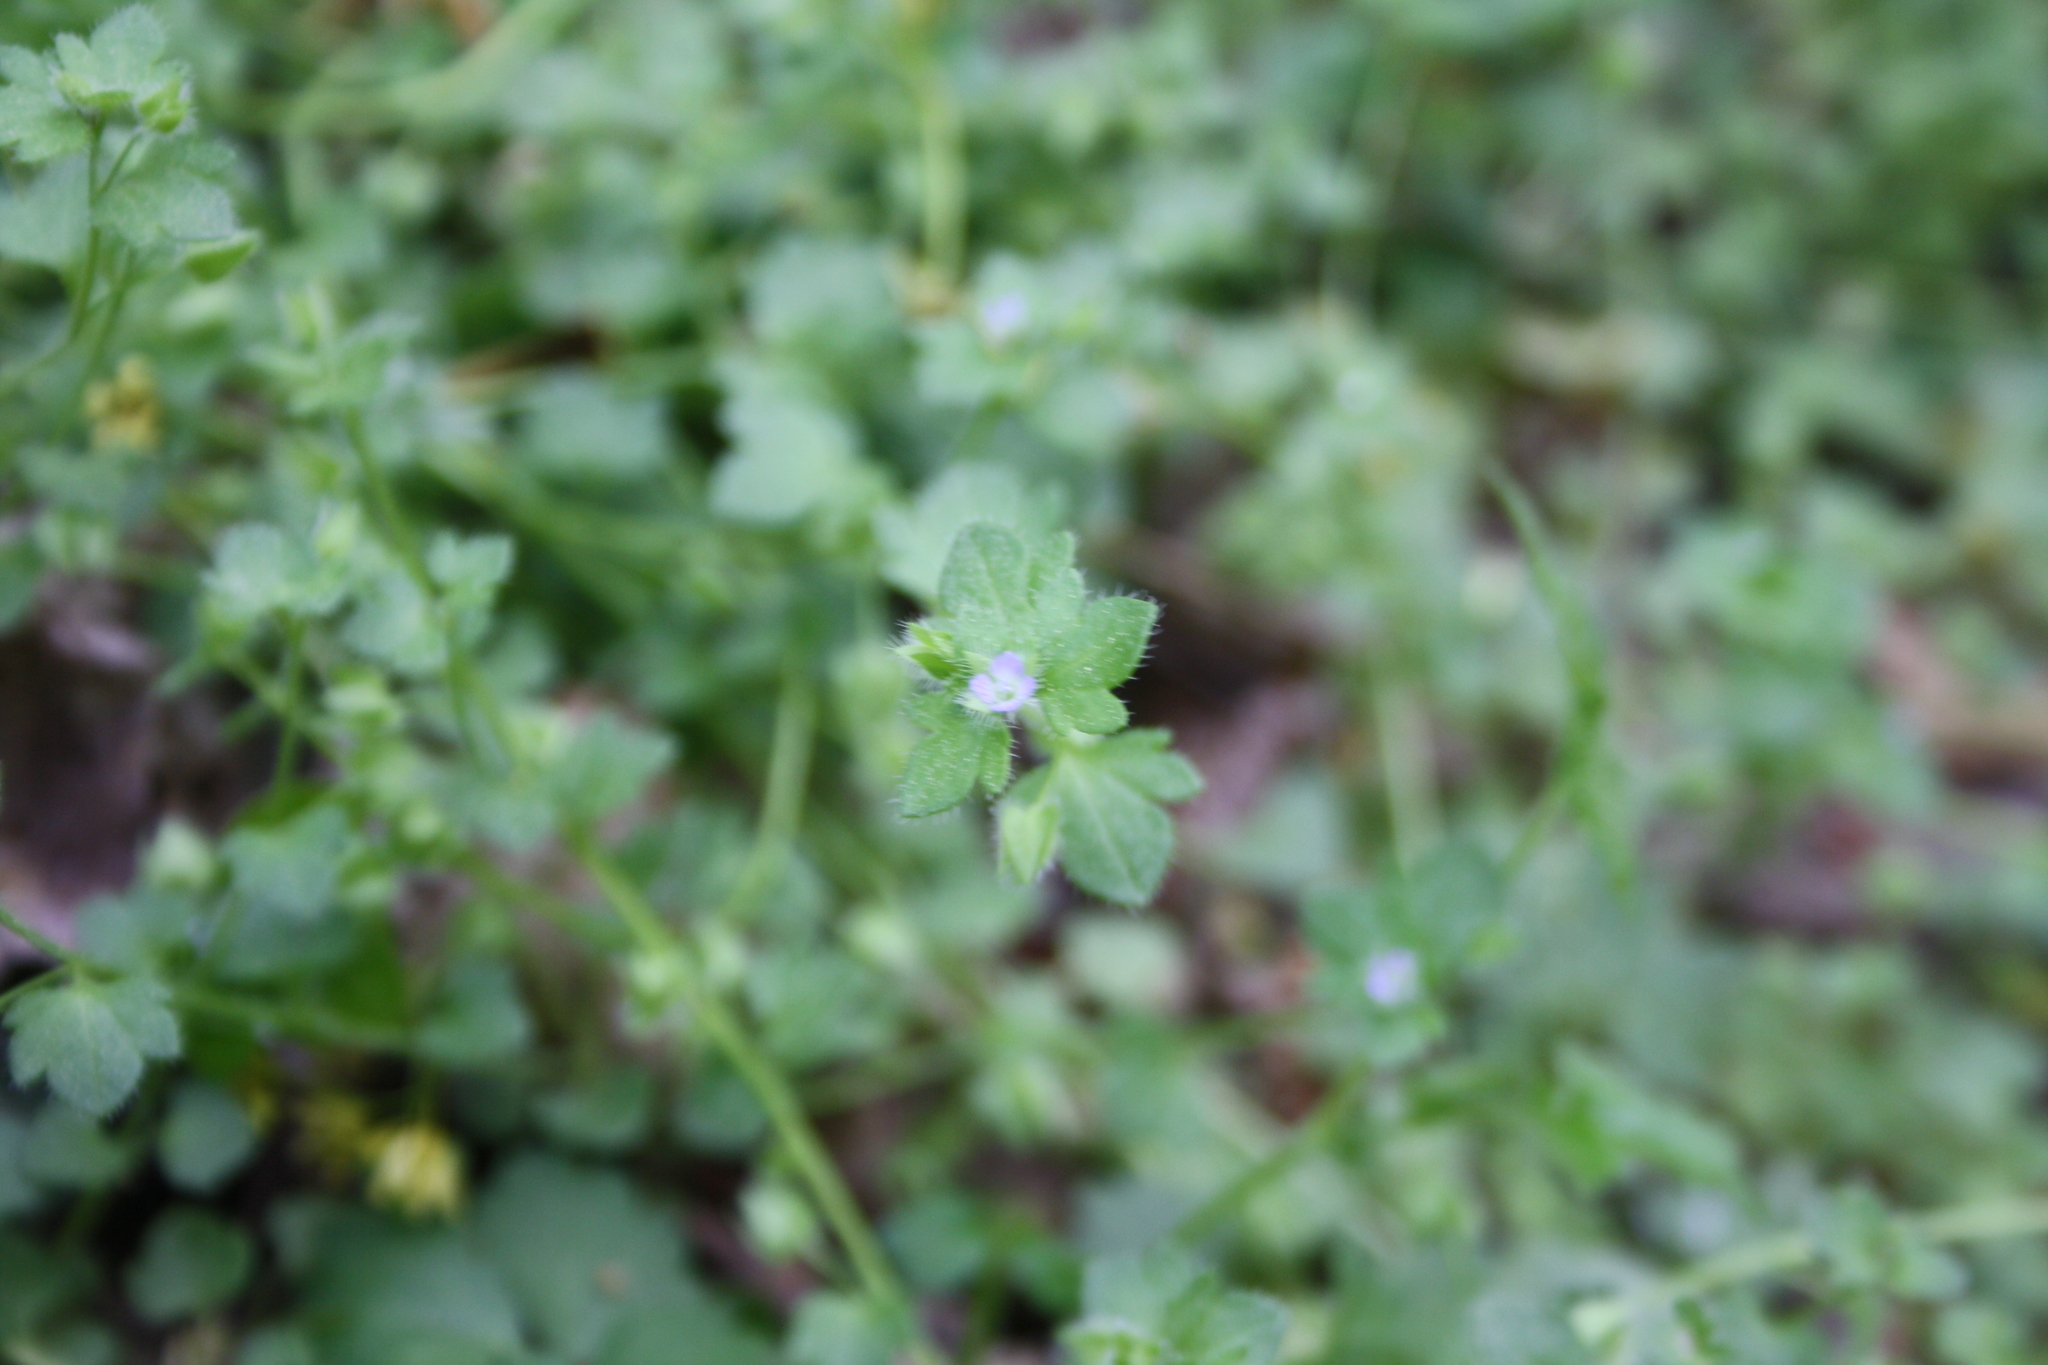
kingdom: Plantae
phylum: Tracheophyta
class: Magnoliopsida
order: Lamiales
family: Plantaginaceae
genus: Veronica
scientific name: Veronica hederifolia
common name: Ivy-leaved speedwell
